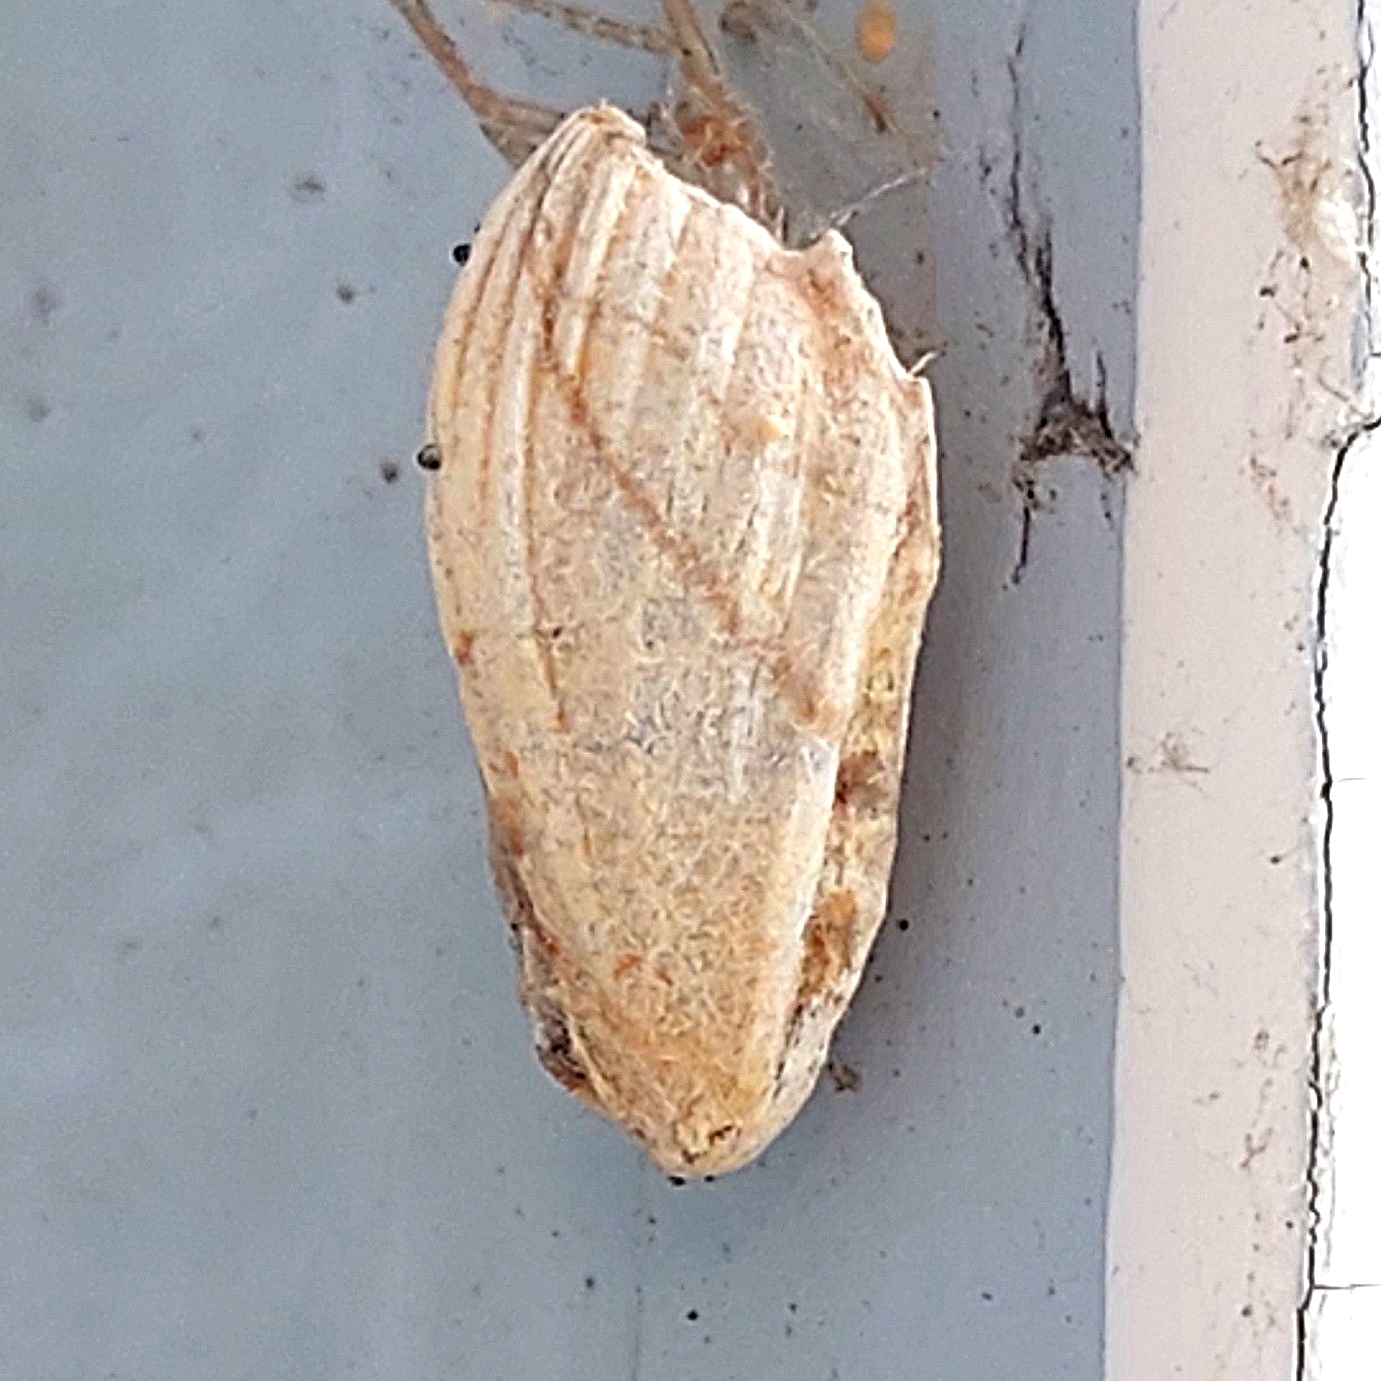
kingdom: Animalia
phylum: Arthropoda
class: Insecta
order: Lepidoptera
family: Geometridae
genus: Timandra
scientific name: Timandra comae
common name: Blood-vein
